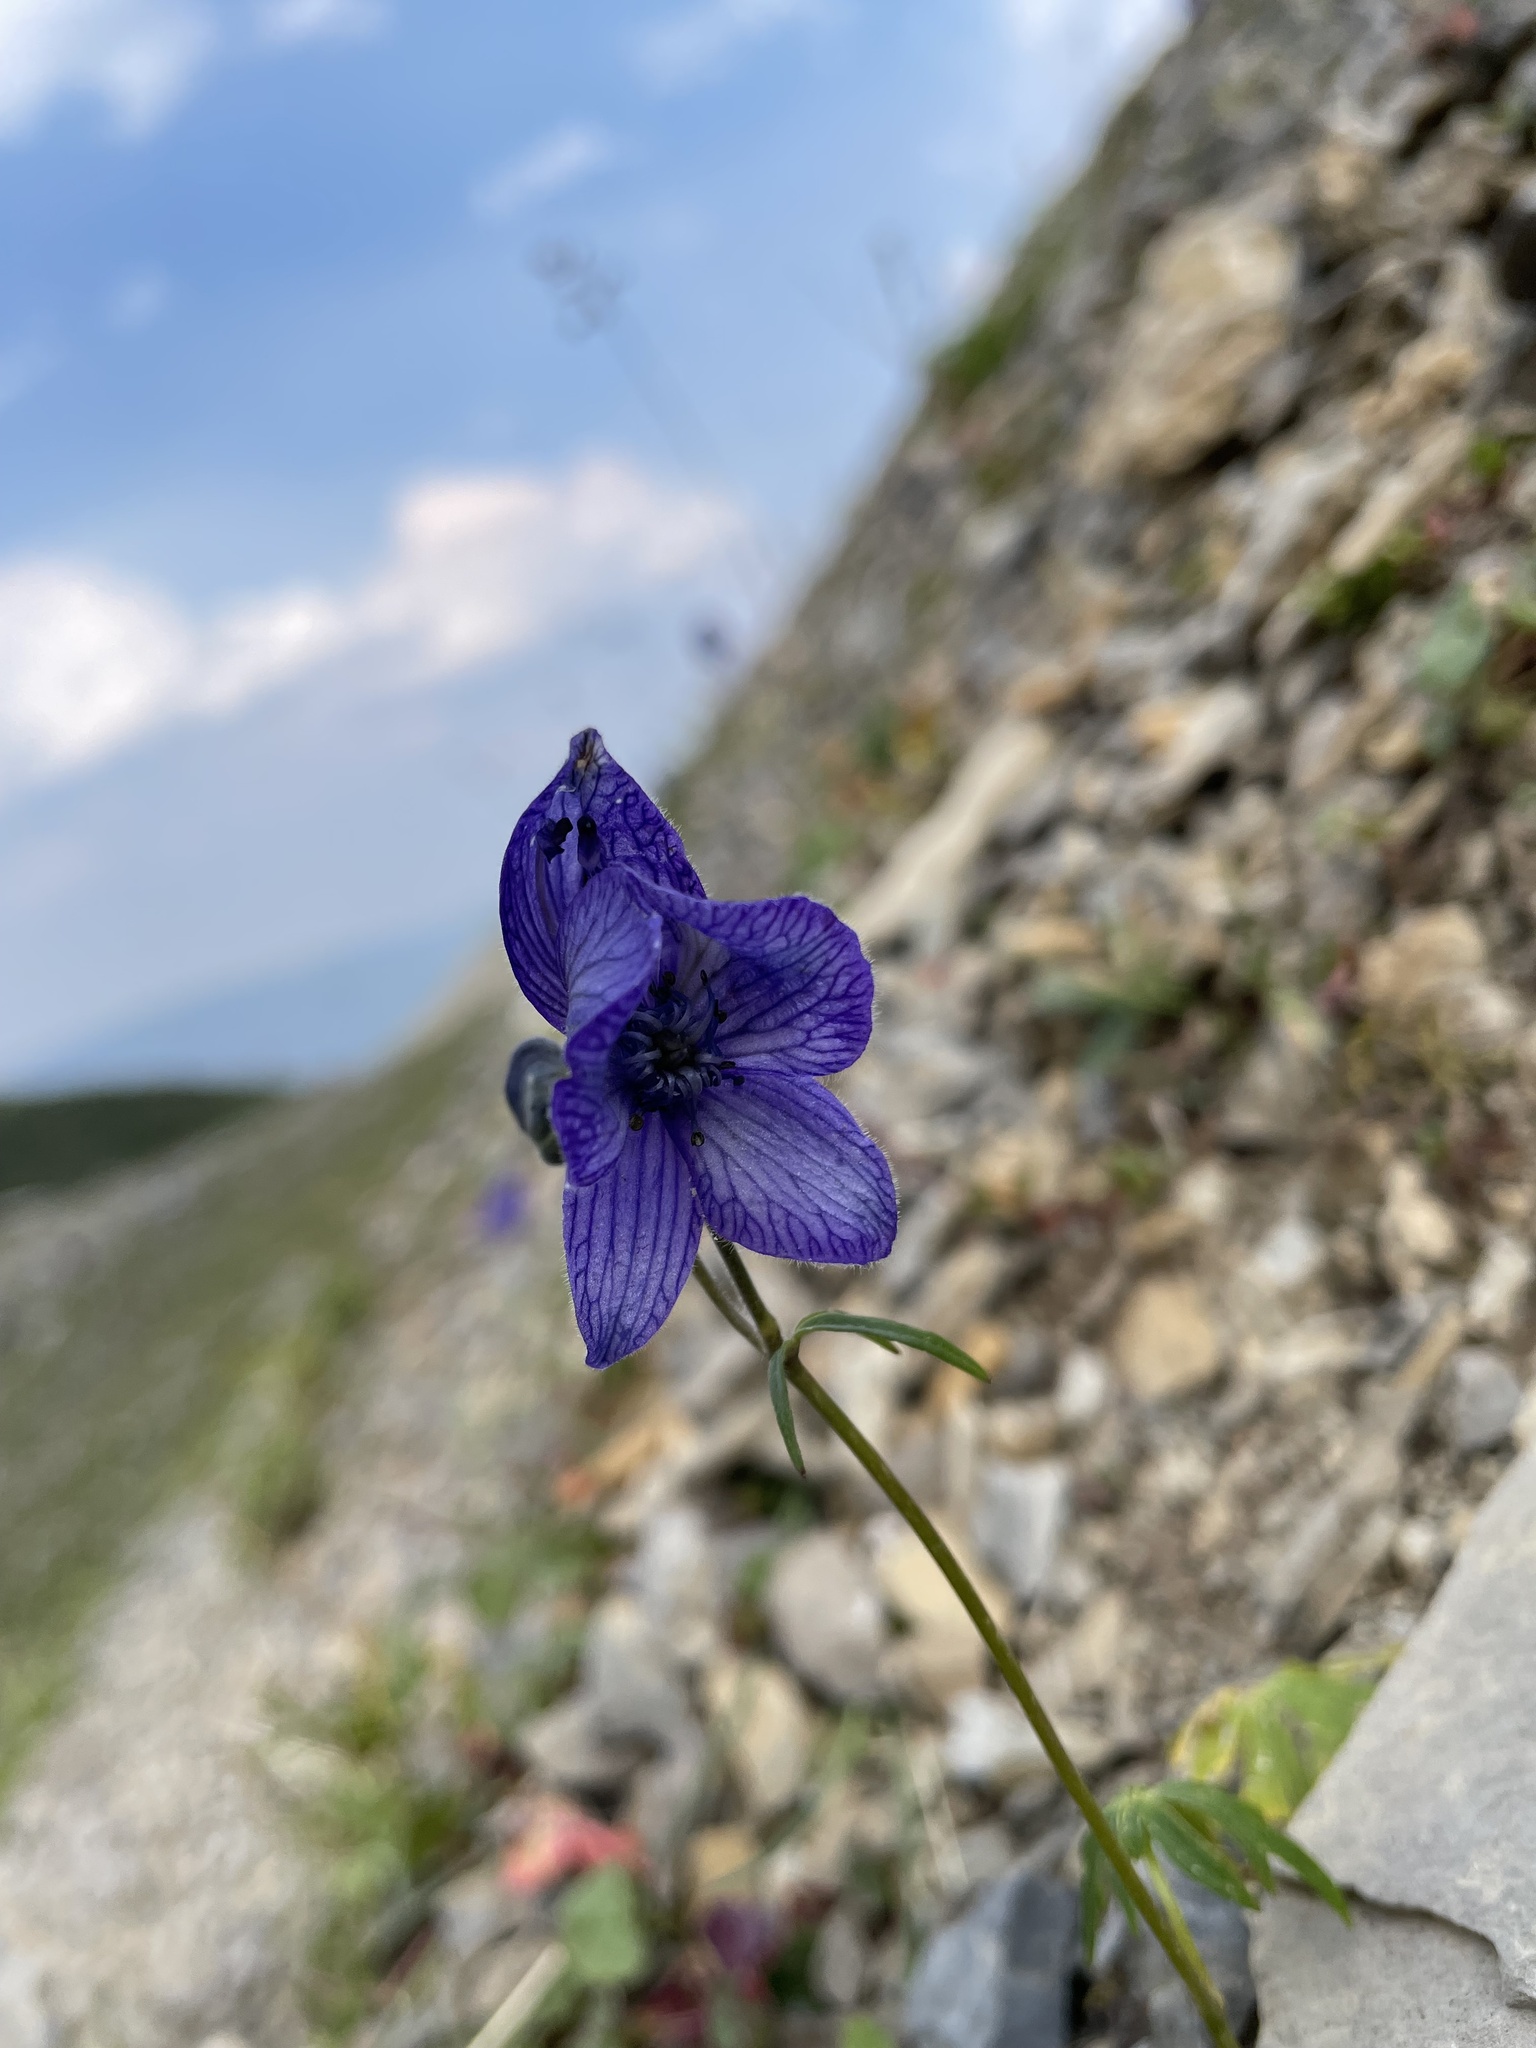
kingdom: Plantae
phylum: Tracheophyta
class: Magnoliopsida
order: Ranunculales
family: Ranunculaceae
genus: Aconitum
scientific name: Aconitum delphiniifolium
